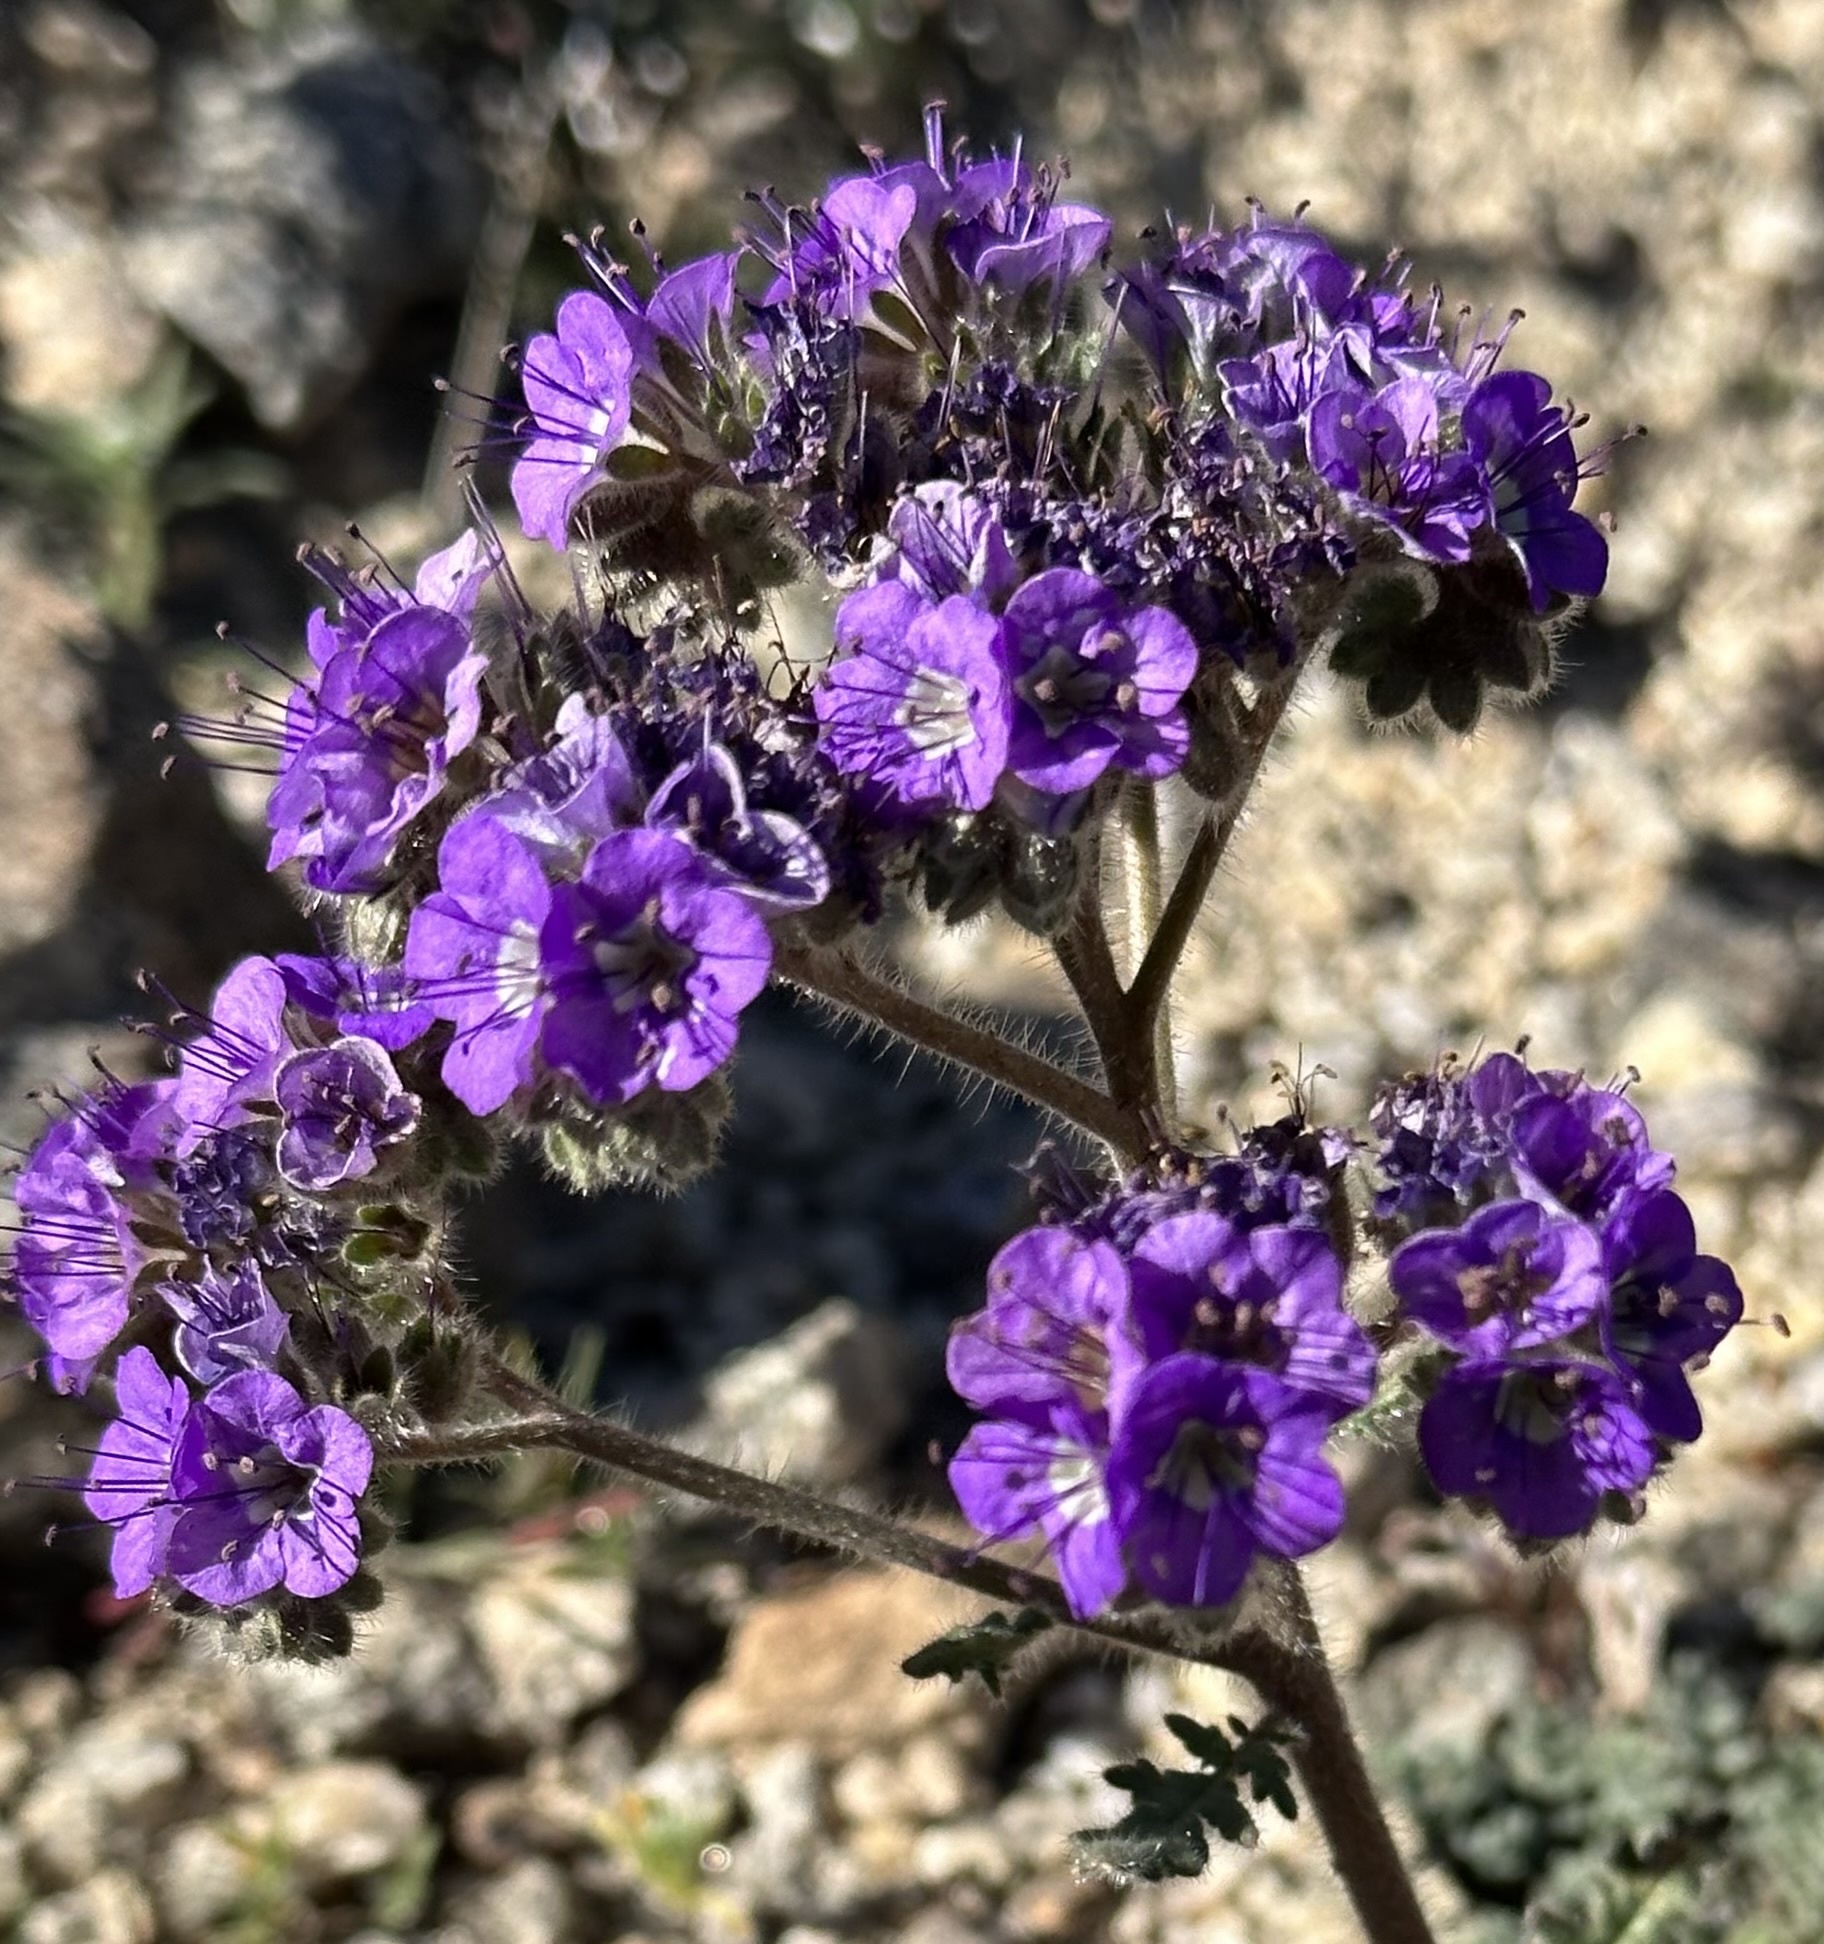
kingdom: Plantae
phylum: Tracheophyta
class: Magnoliopsida
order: Boraginales
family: Hydrophyllaceae
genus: Phacelia
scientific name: Phacelia crenulata
